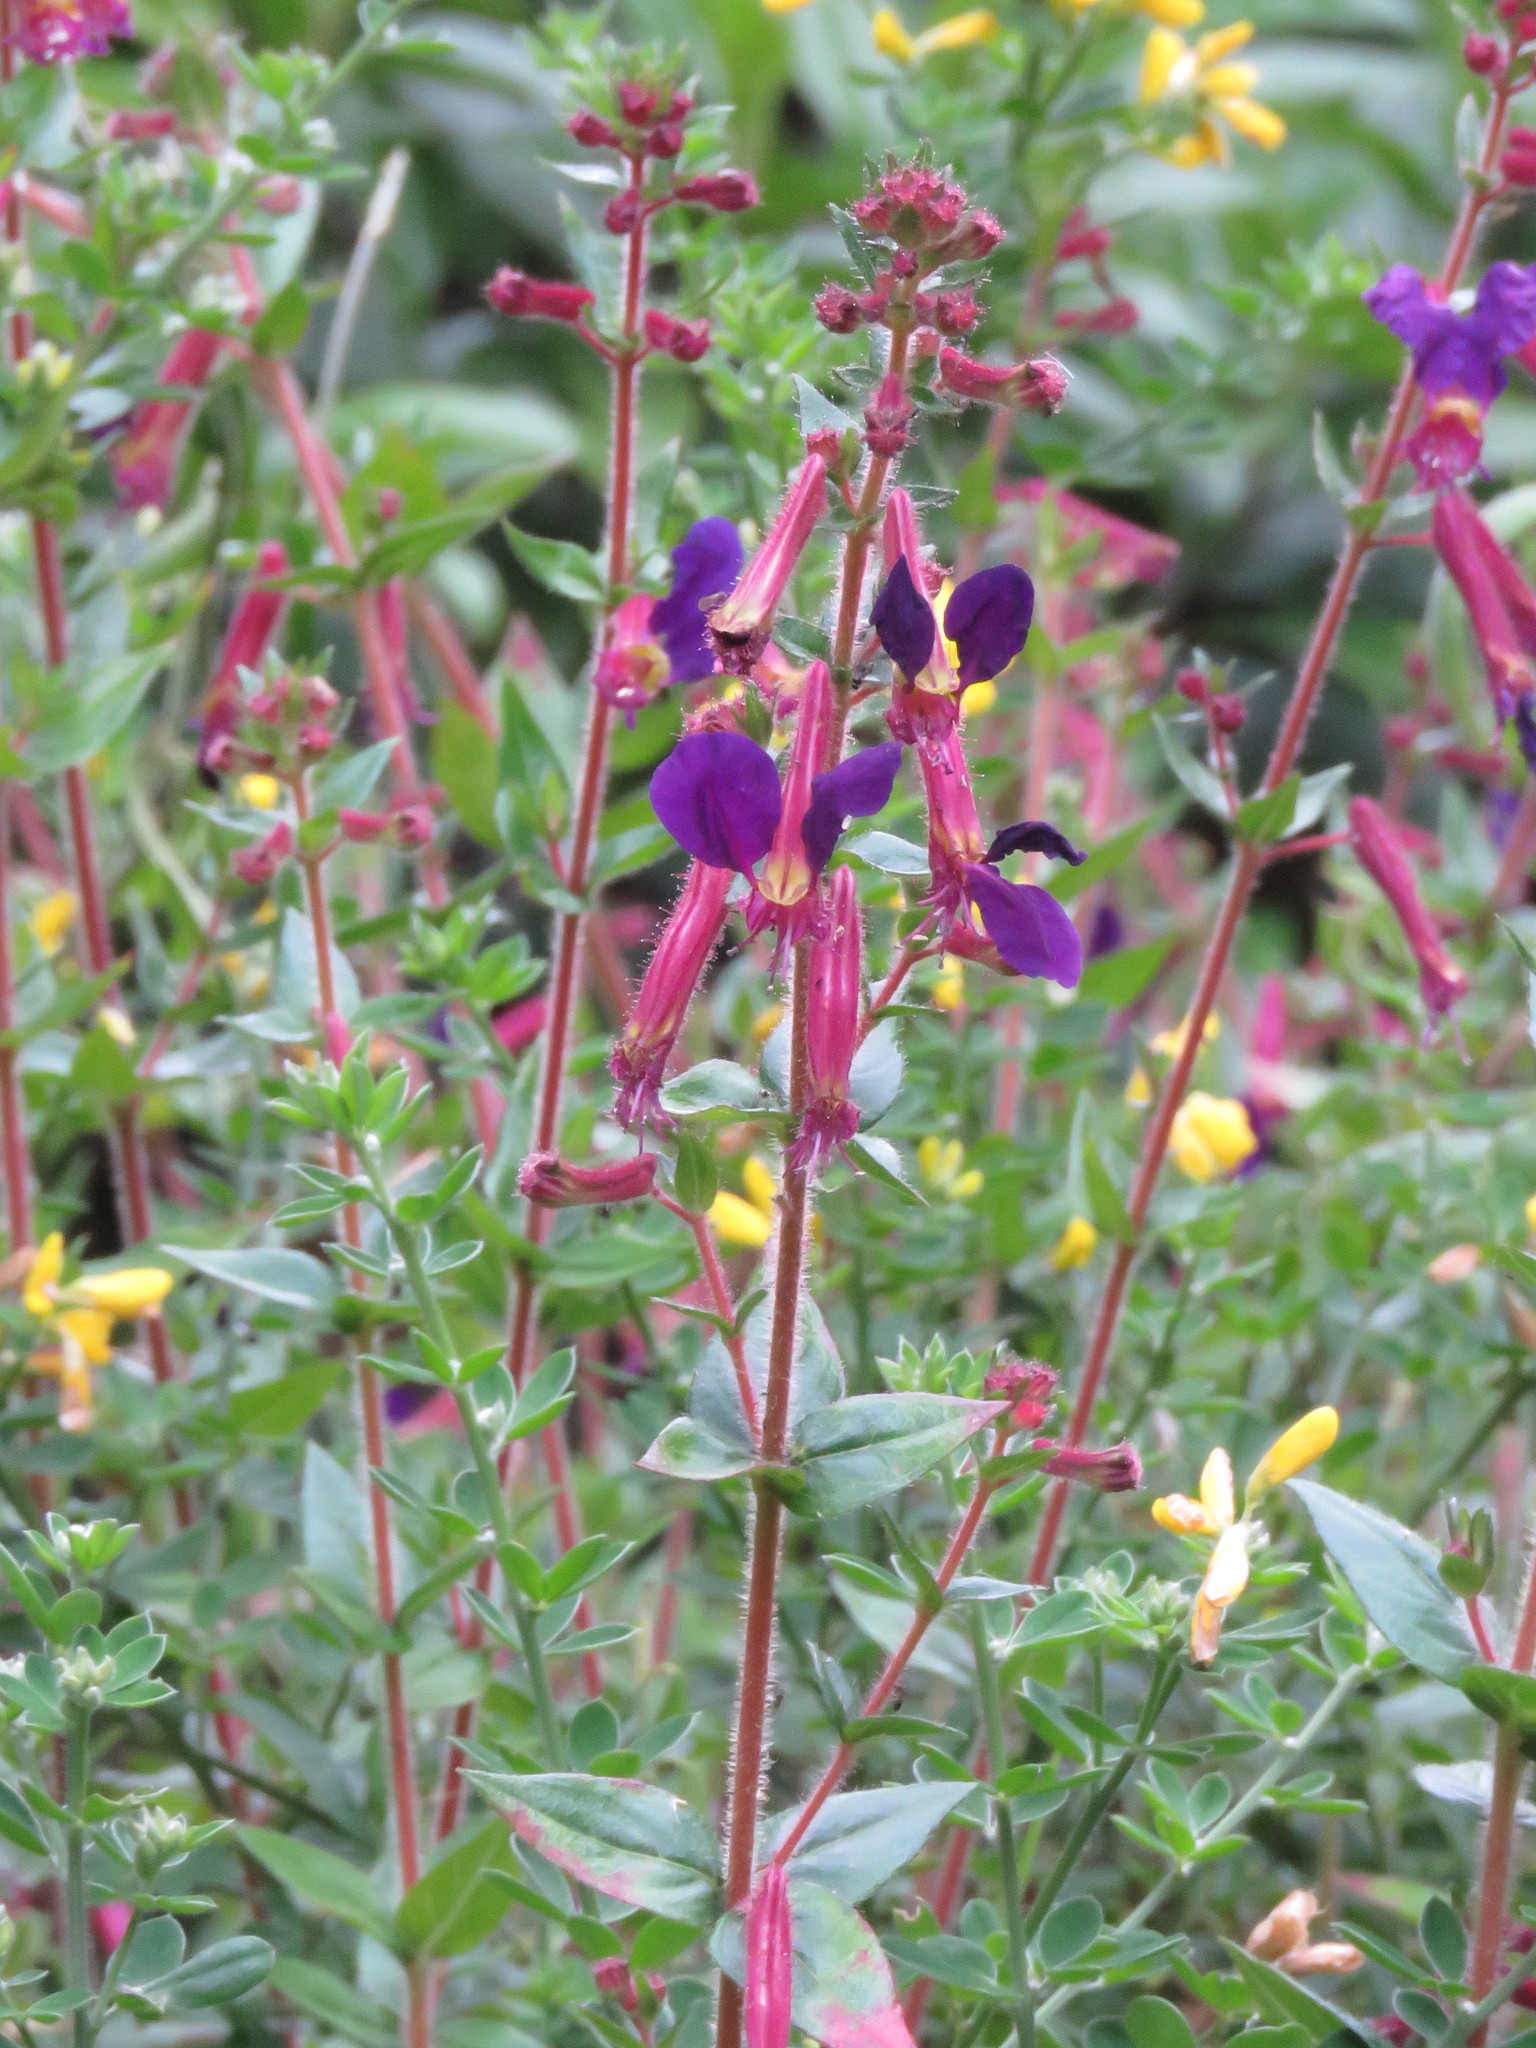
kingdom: Plantae
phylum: Tracheophyta
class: Magnoliopsida
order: Myrtales
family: Lythraceae
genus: Cuphea
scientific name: Cuphea dipetala
